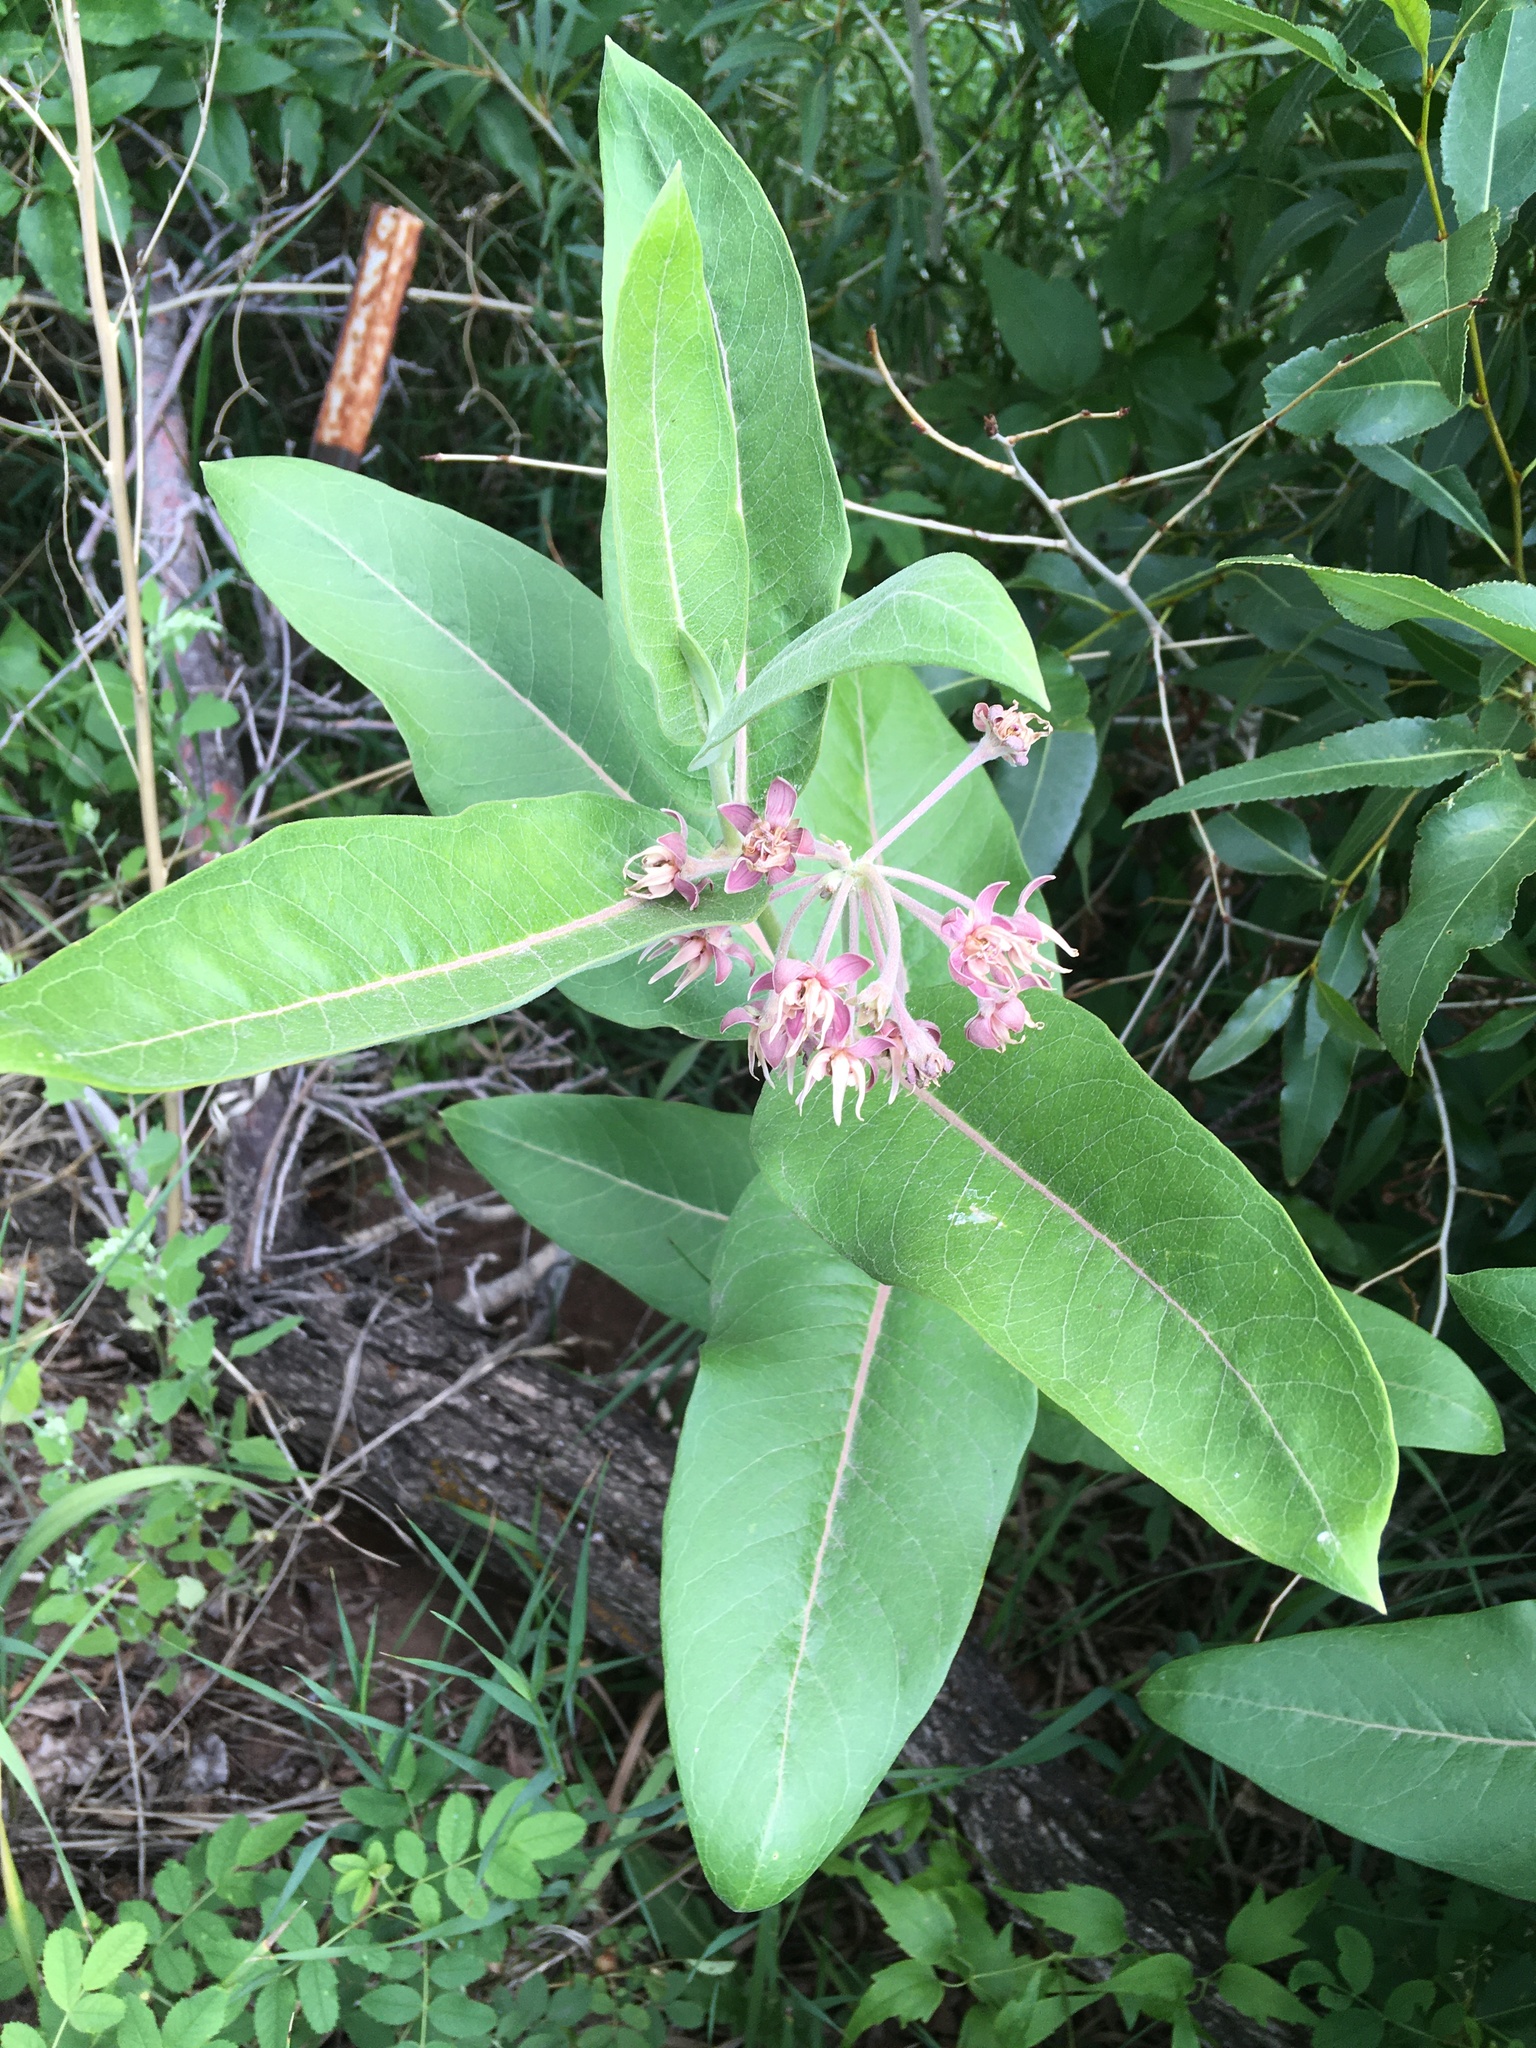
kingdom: Plantae
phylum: Tracheophyta
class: Magnoliopsida
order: Gentianales
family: Apocynaceae
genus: Asclepias
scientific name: Asclepias speciosa
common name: Showy milkweed
